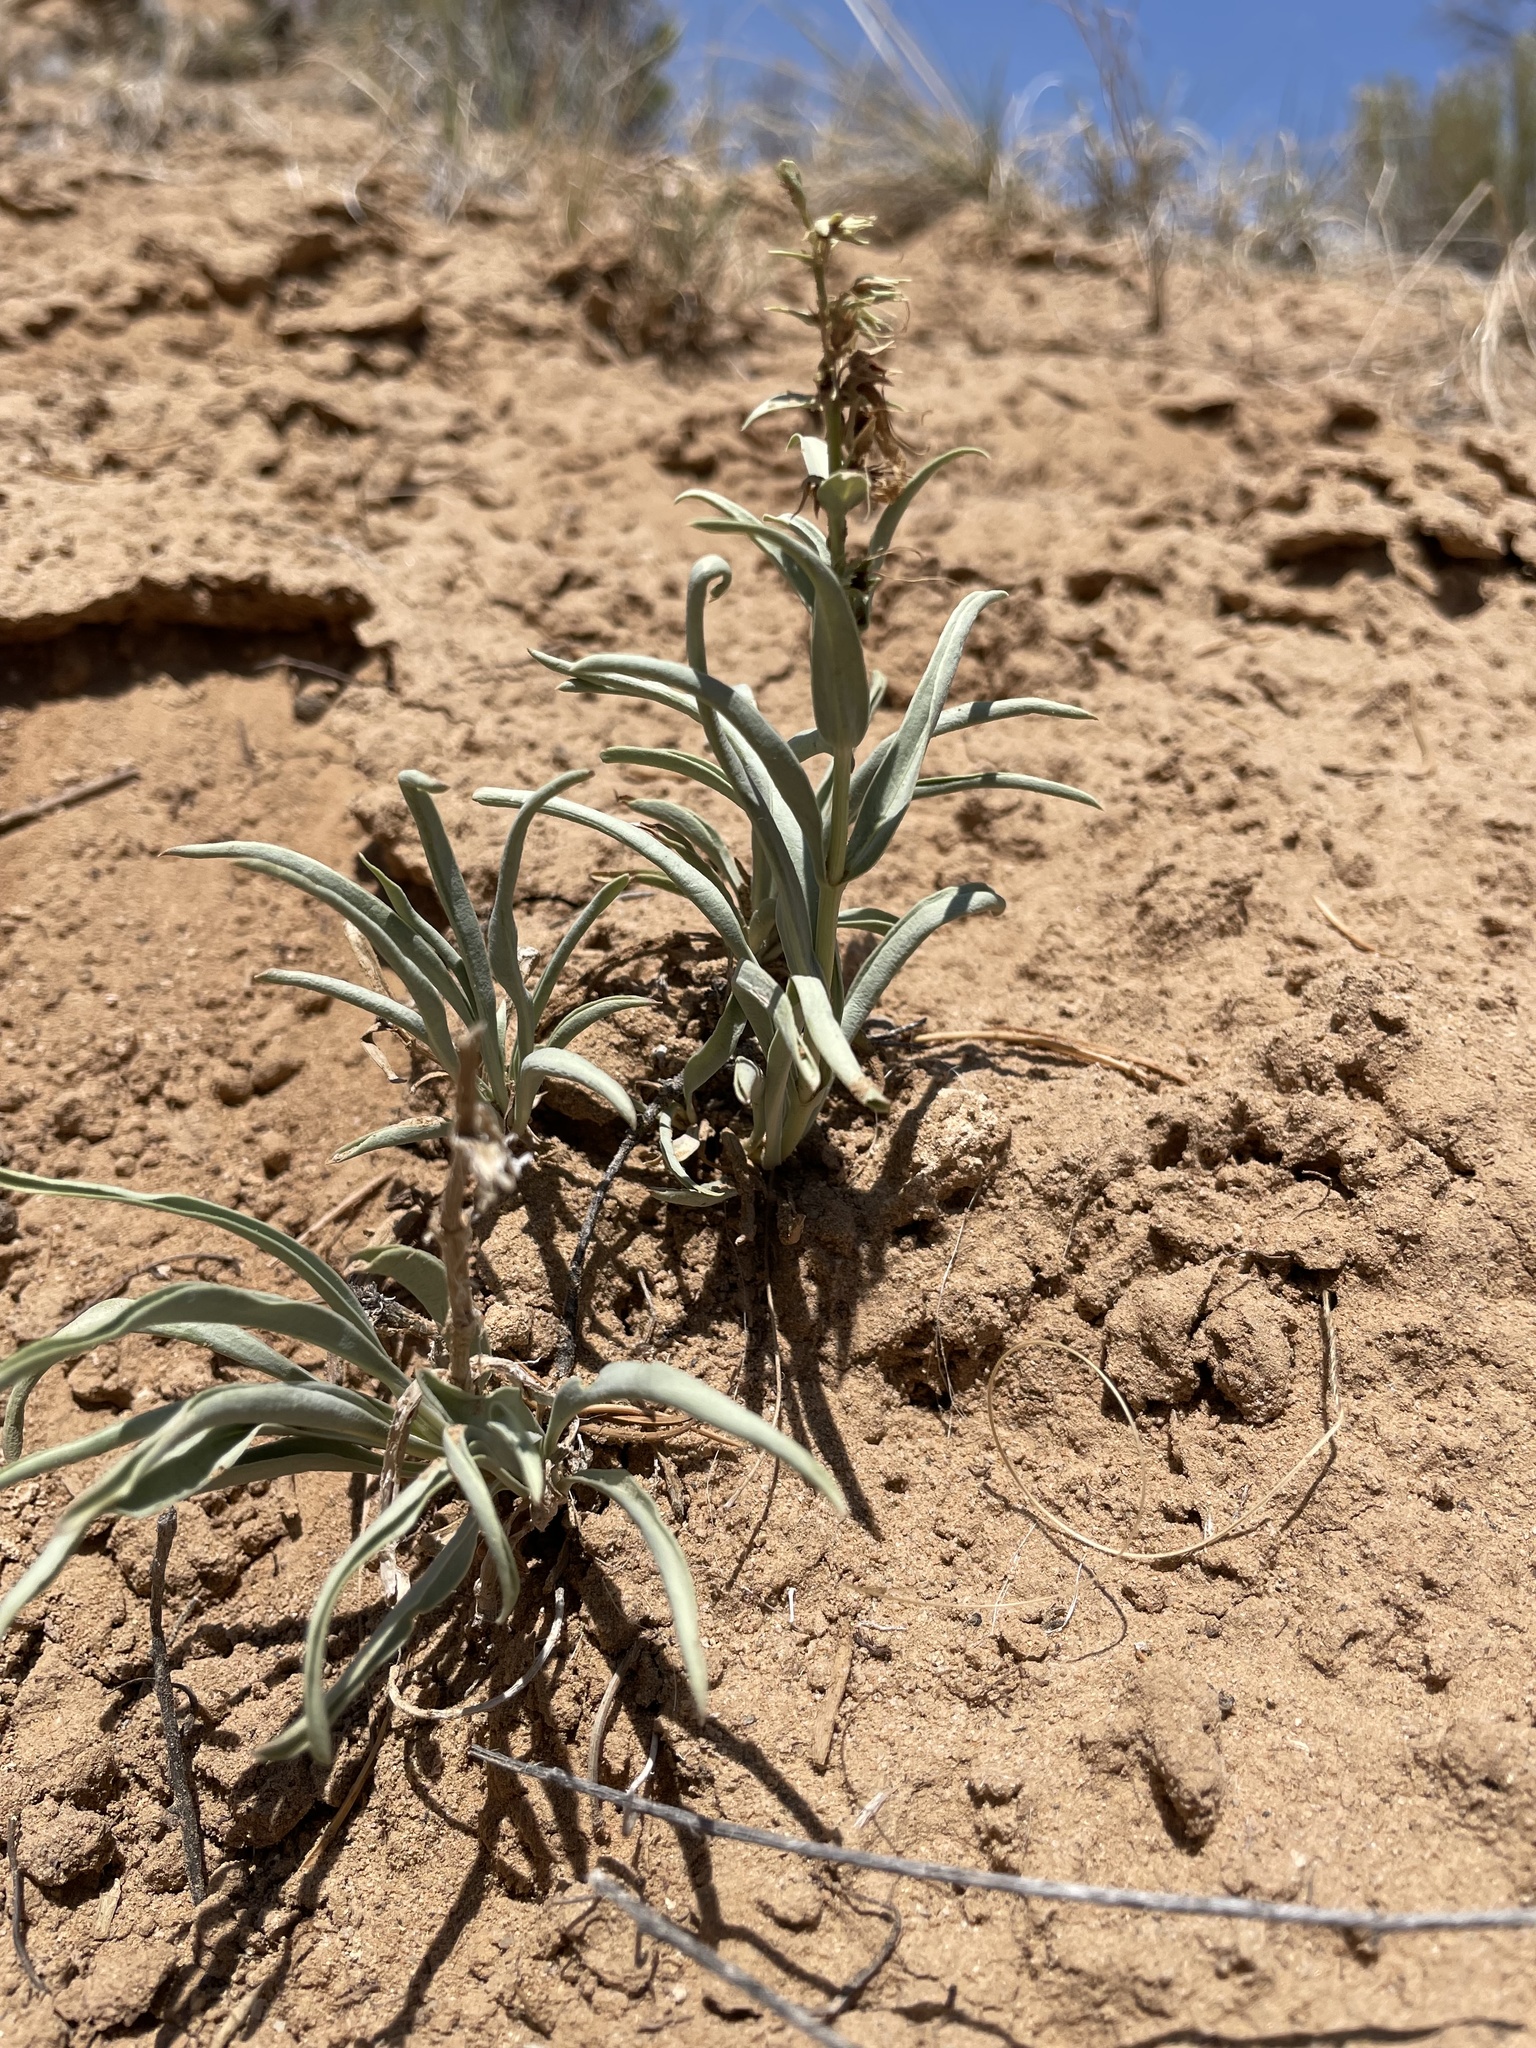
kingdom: Plantae
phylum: Tracheophyta
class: Magnoliopsida
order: Lamiales
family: Plantaginaceae
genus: Penstemon
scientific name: Penstemon angustifolius
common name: Narrow beardtongue
